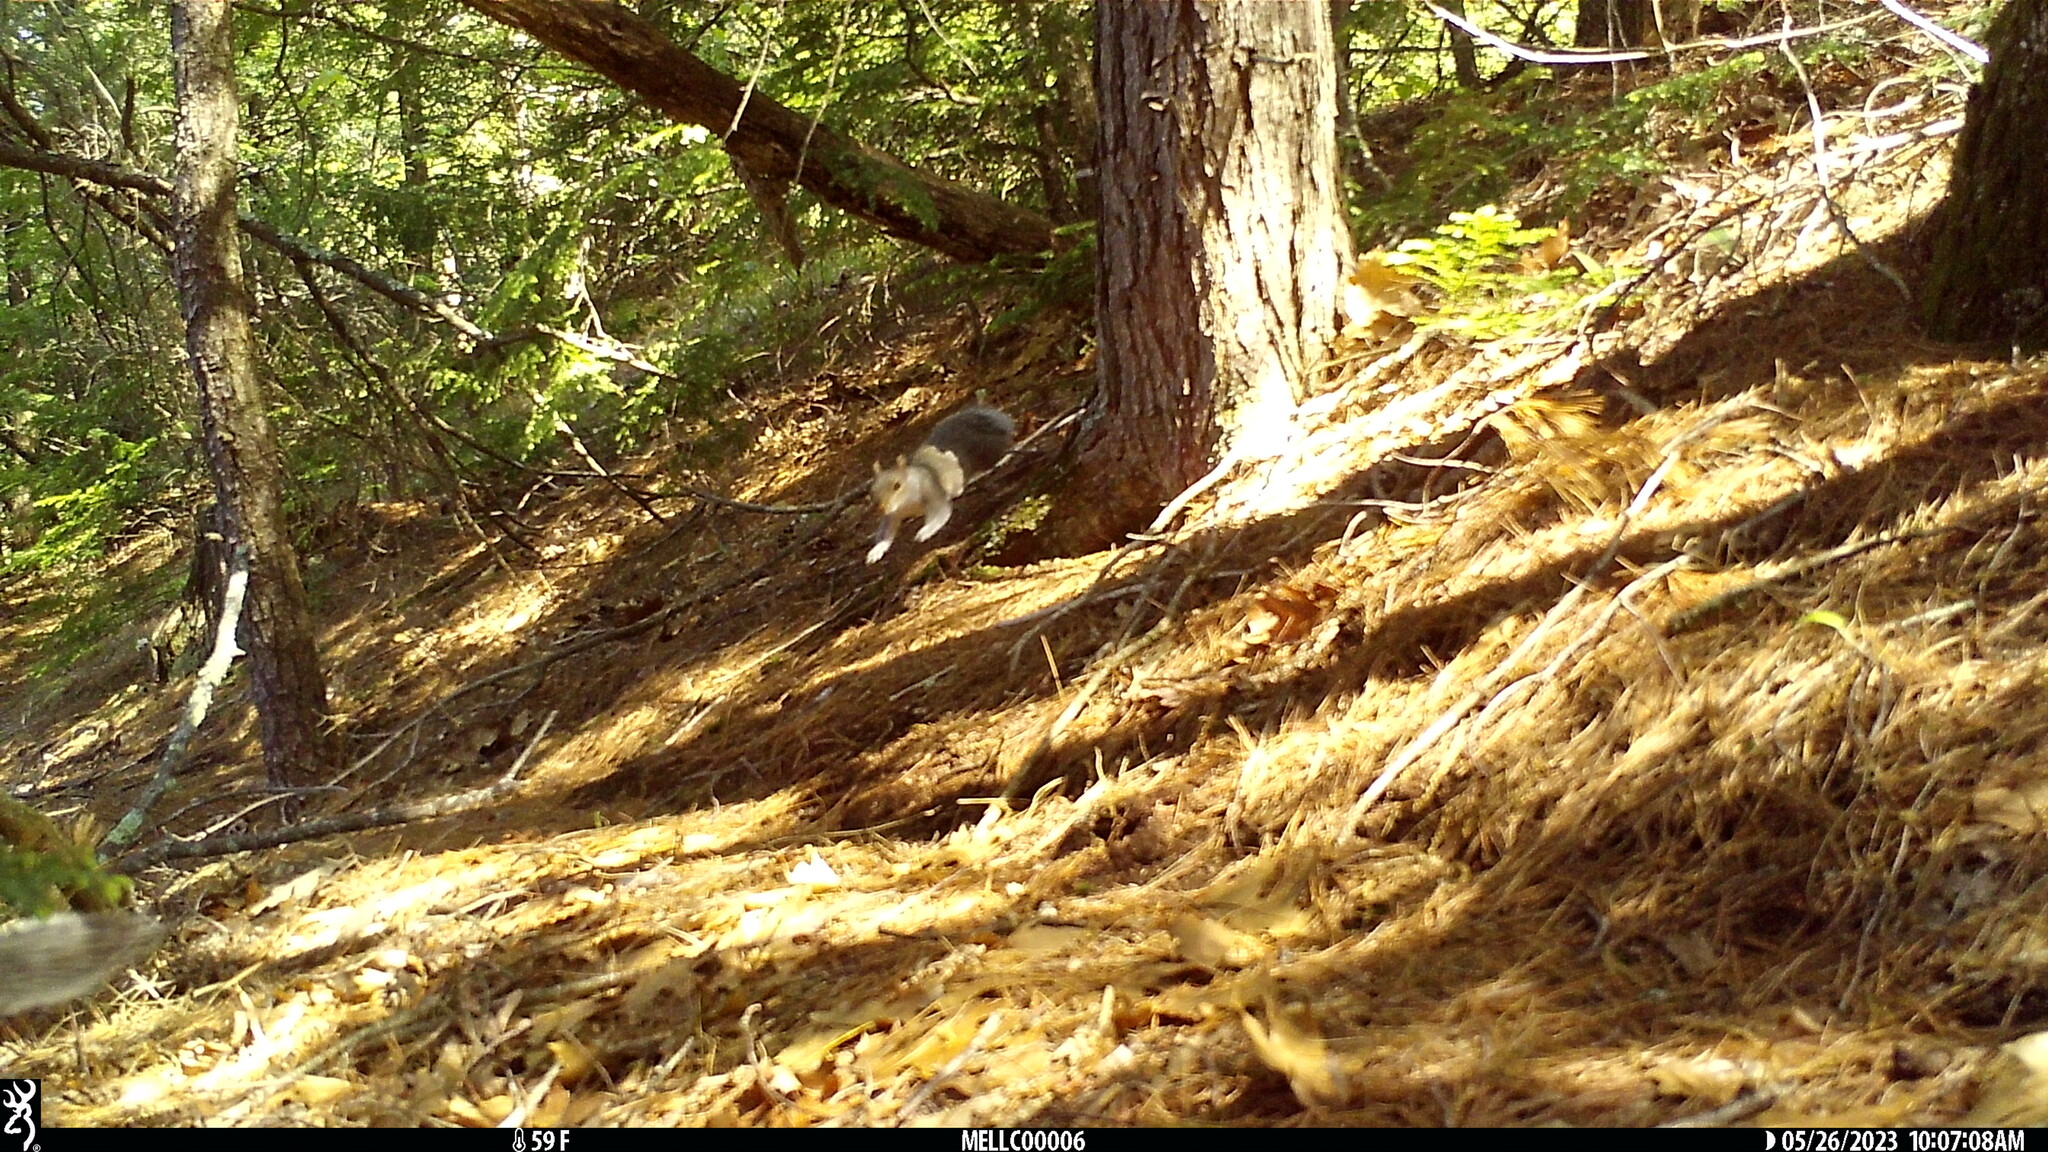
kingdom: Animalia
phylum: Chordata
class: Mammalia
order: Rodentia
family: Sciuridae
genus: Sciurus
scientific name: Sciurus carolinensis
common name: Eastern gray squirrel
